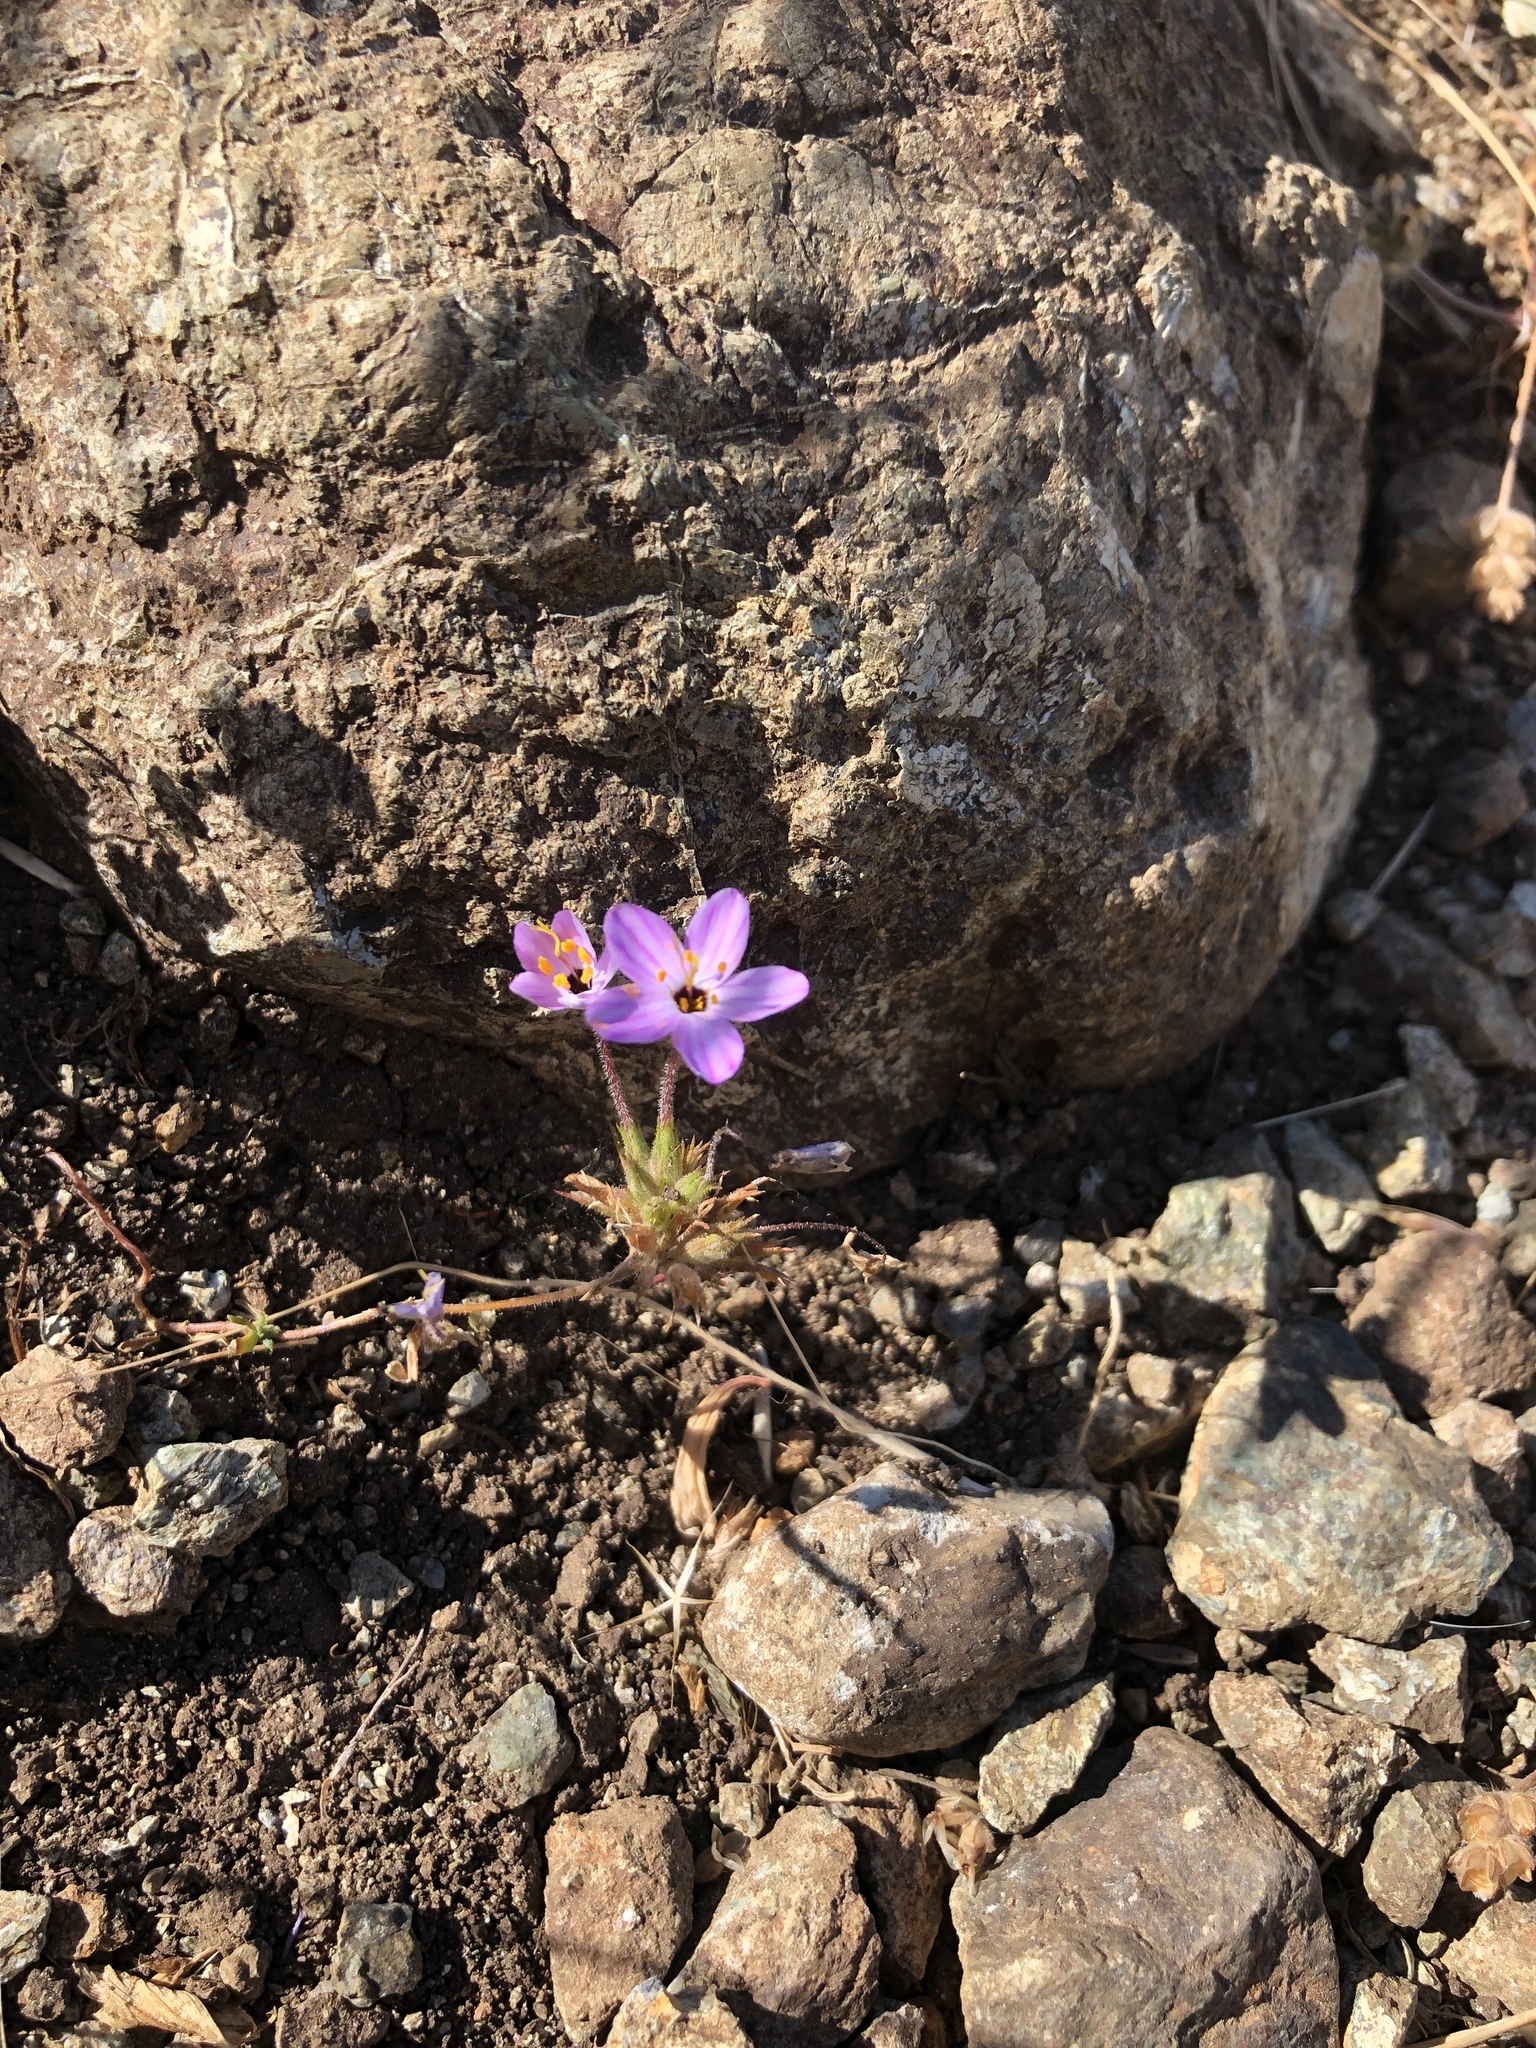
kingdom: Plantae
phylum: Tracheophyta
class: Magnoliopsida
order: Ericales
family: Polemoniaceae
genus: Leptosiphon
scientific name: Leptosiphon parviflorus
